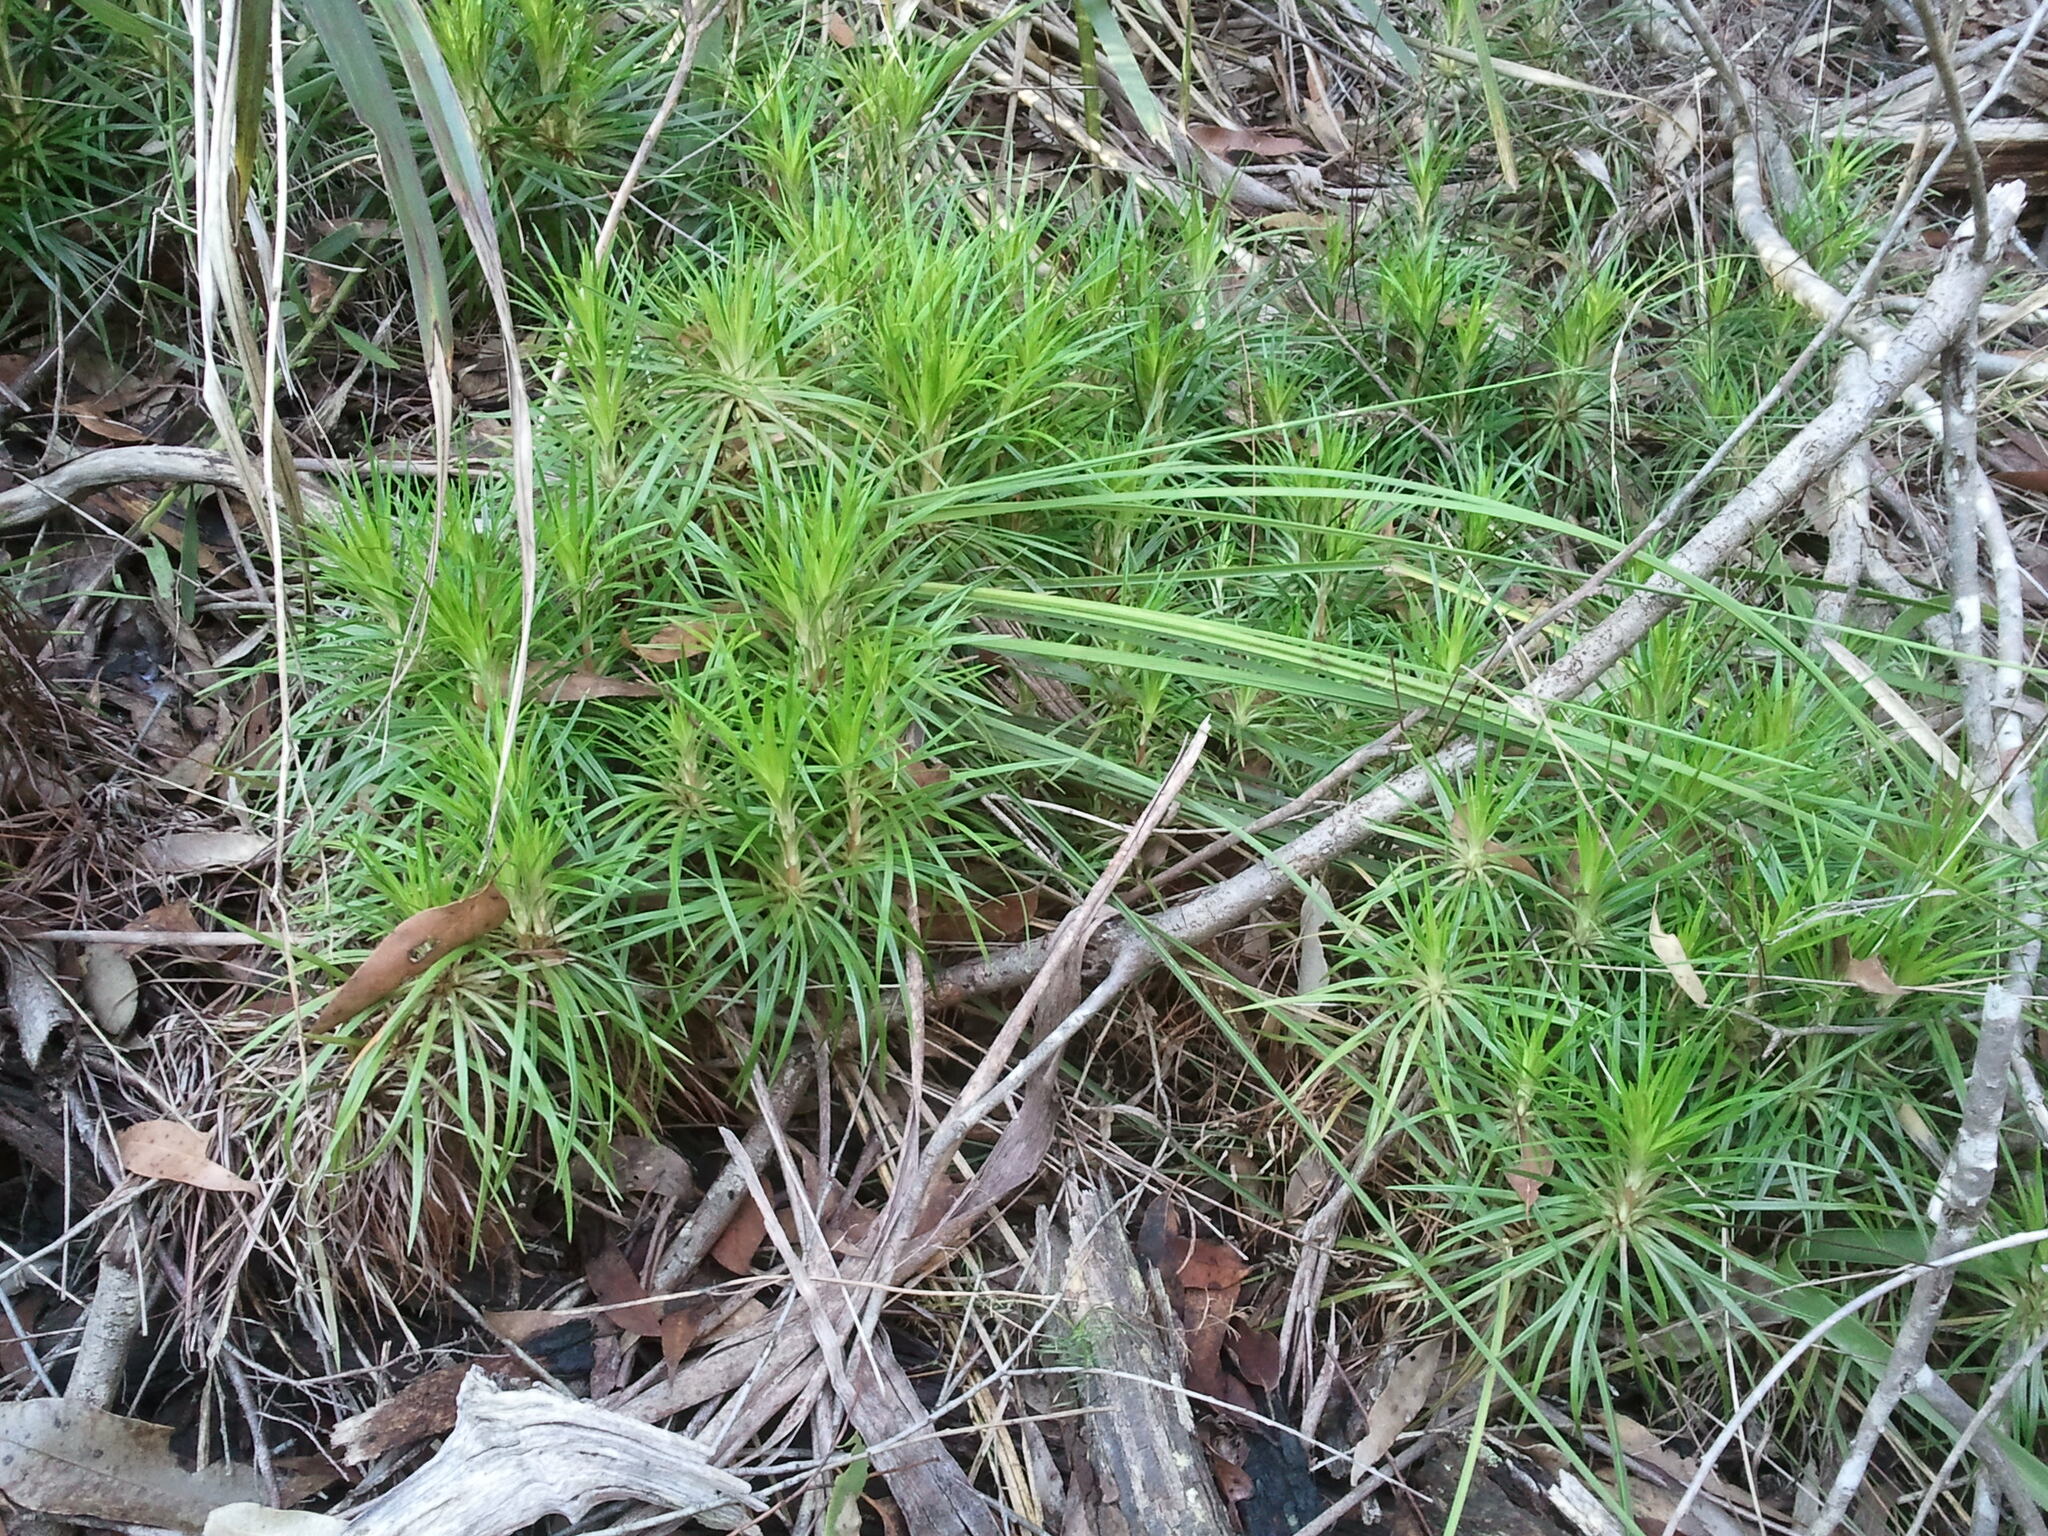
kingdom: Plantae
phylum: Tracheophyta
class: Magnoliopsida
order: Asterales
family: Stylidiaceae
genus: Stylidium
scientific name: Stylidium productum
